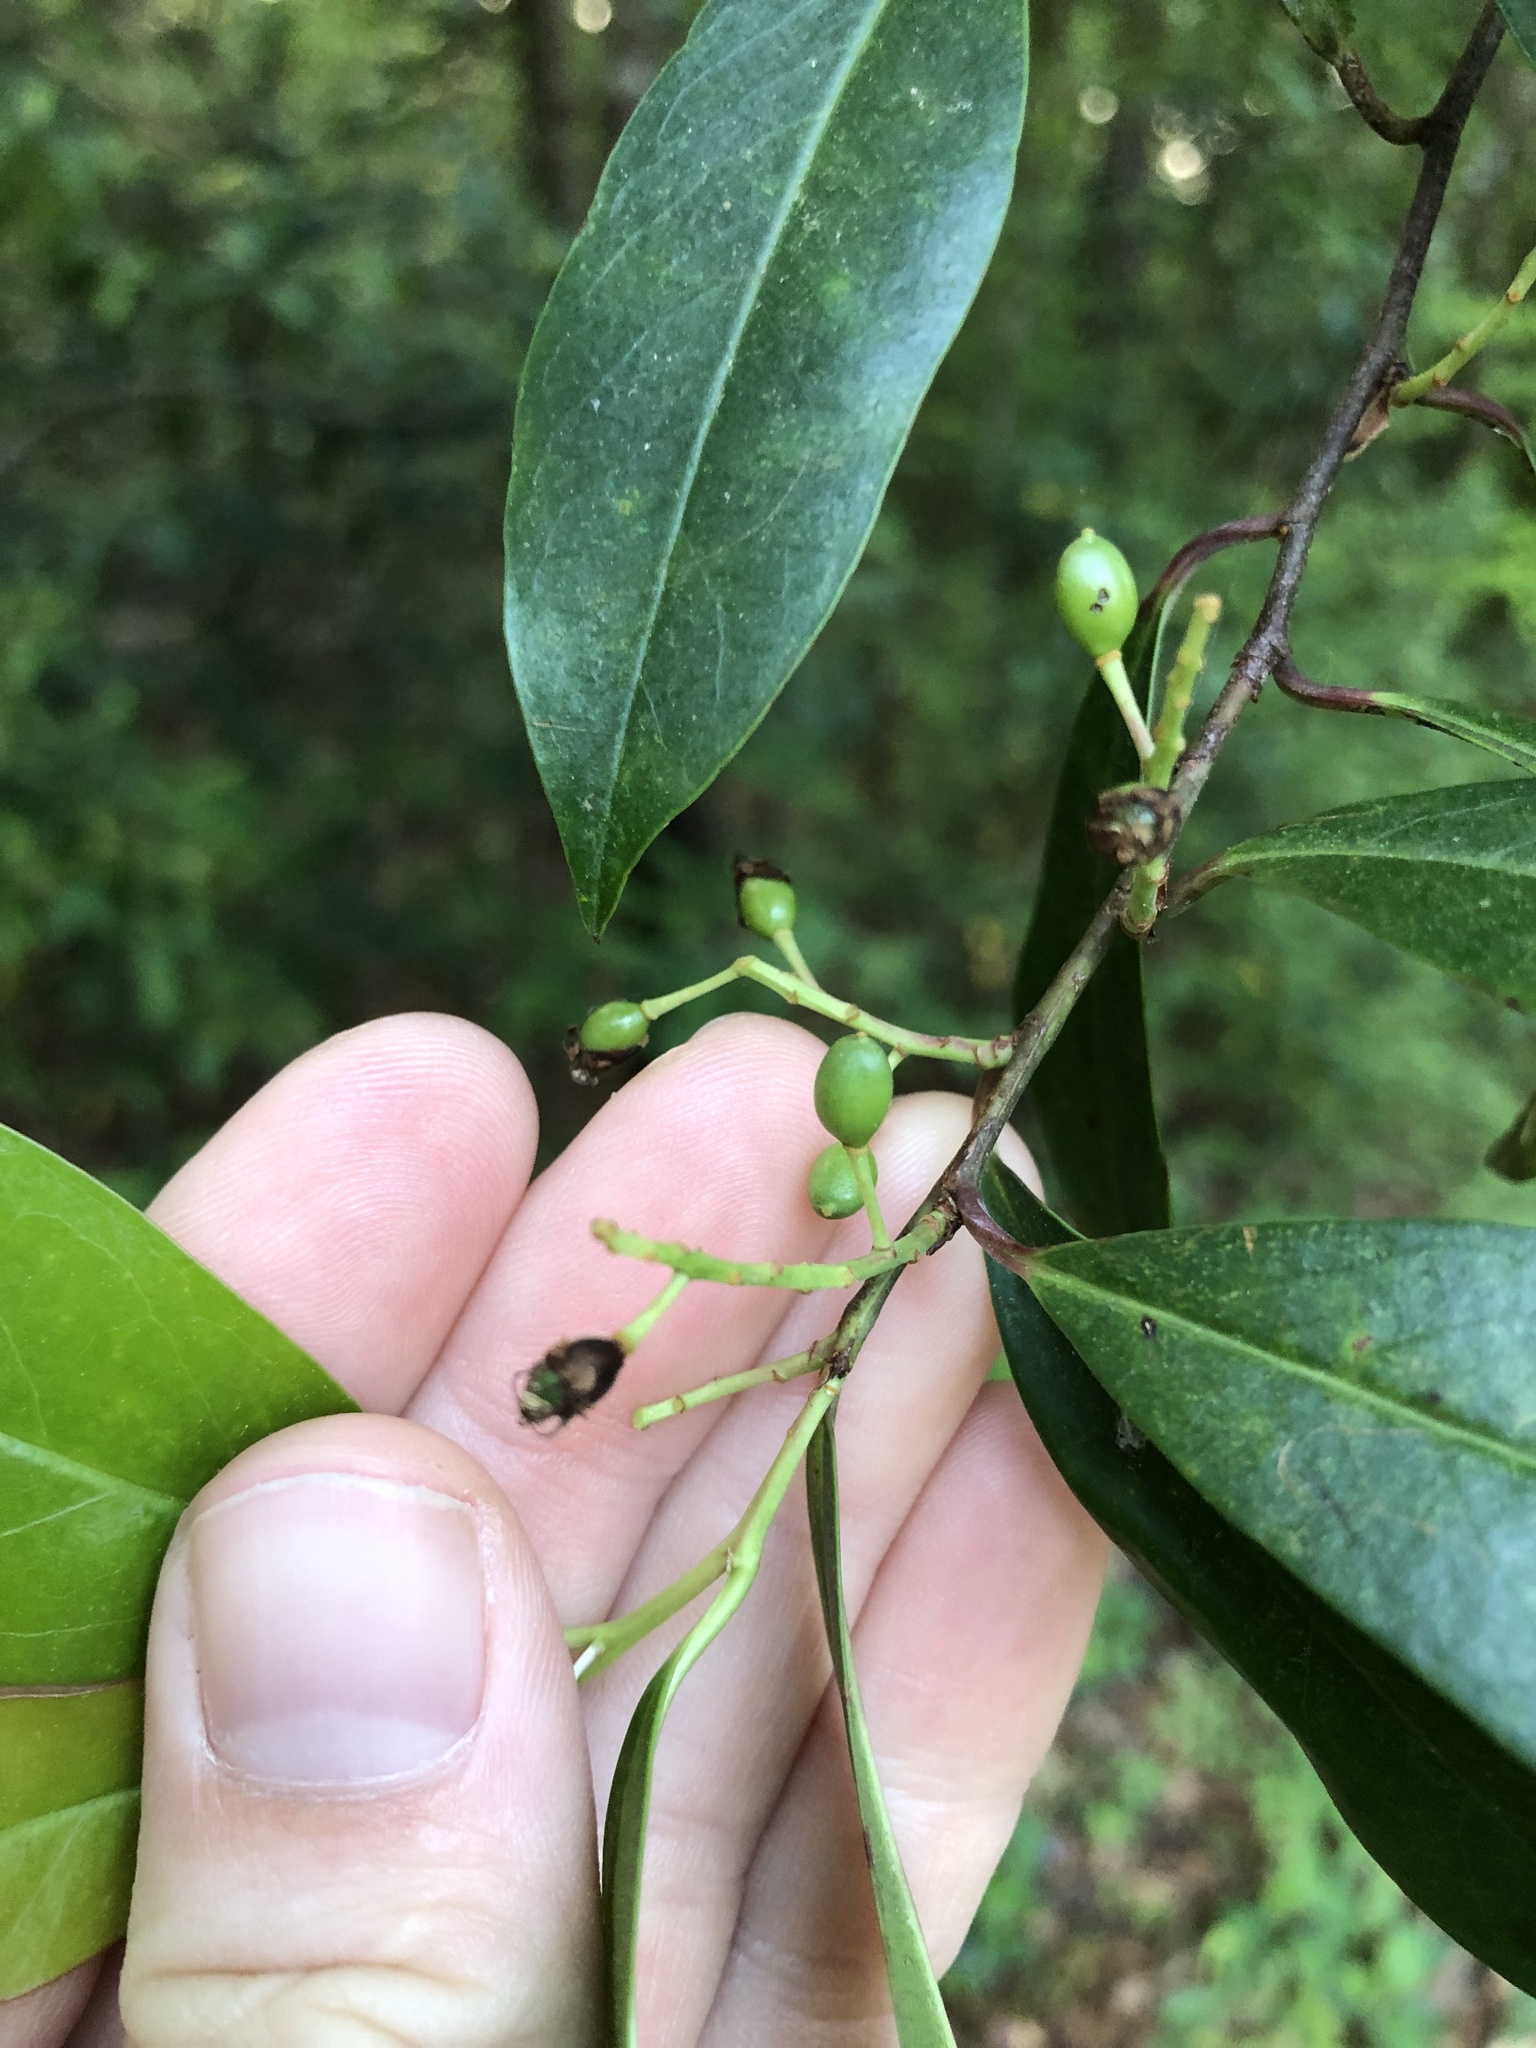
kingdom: Plantae
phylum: Tracheophyta
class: Magnoliopsida
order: Rosales
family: Rosaceae
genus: Prunus
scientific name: Prunus caroliniana
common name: Carolina laurel cherry
